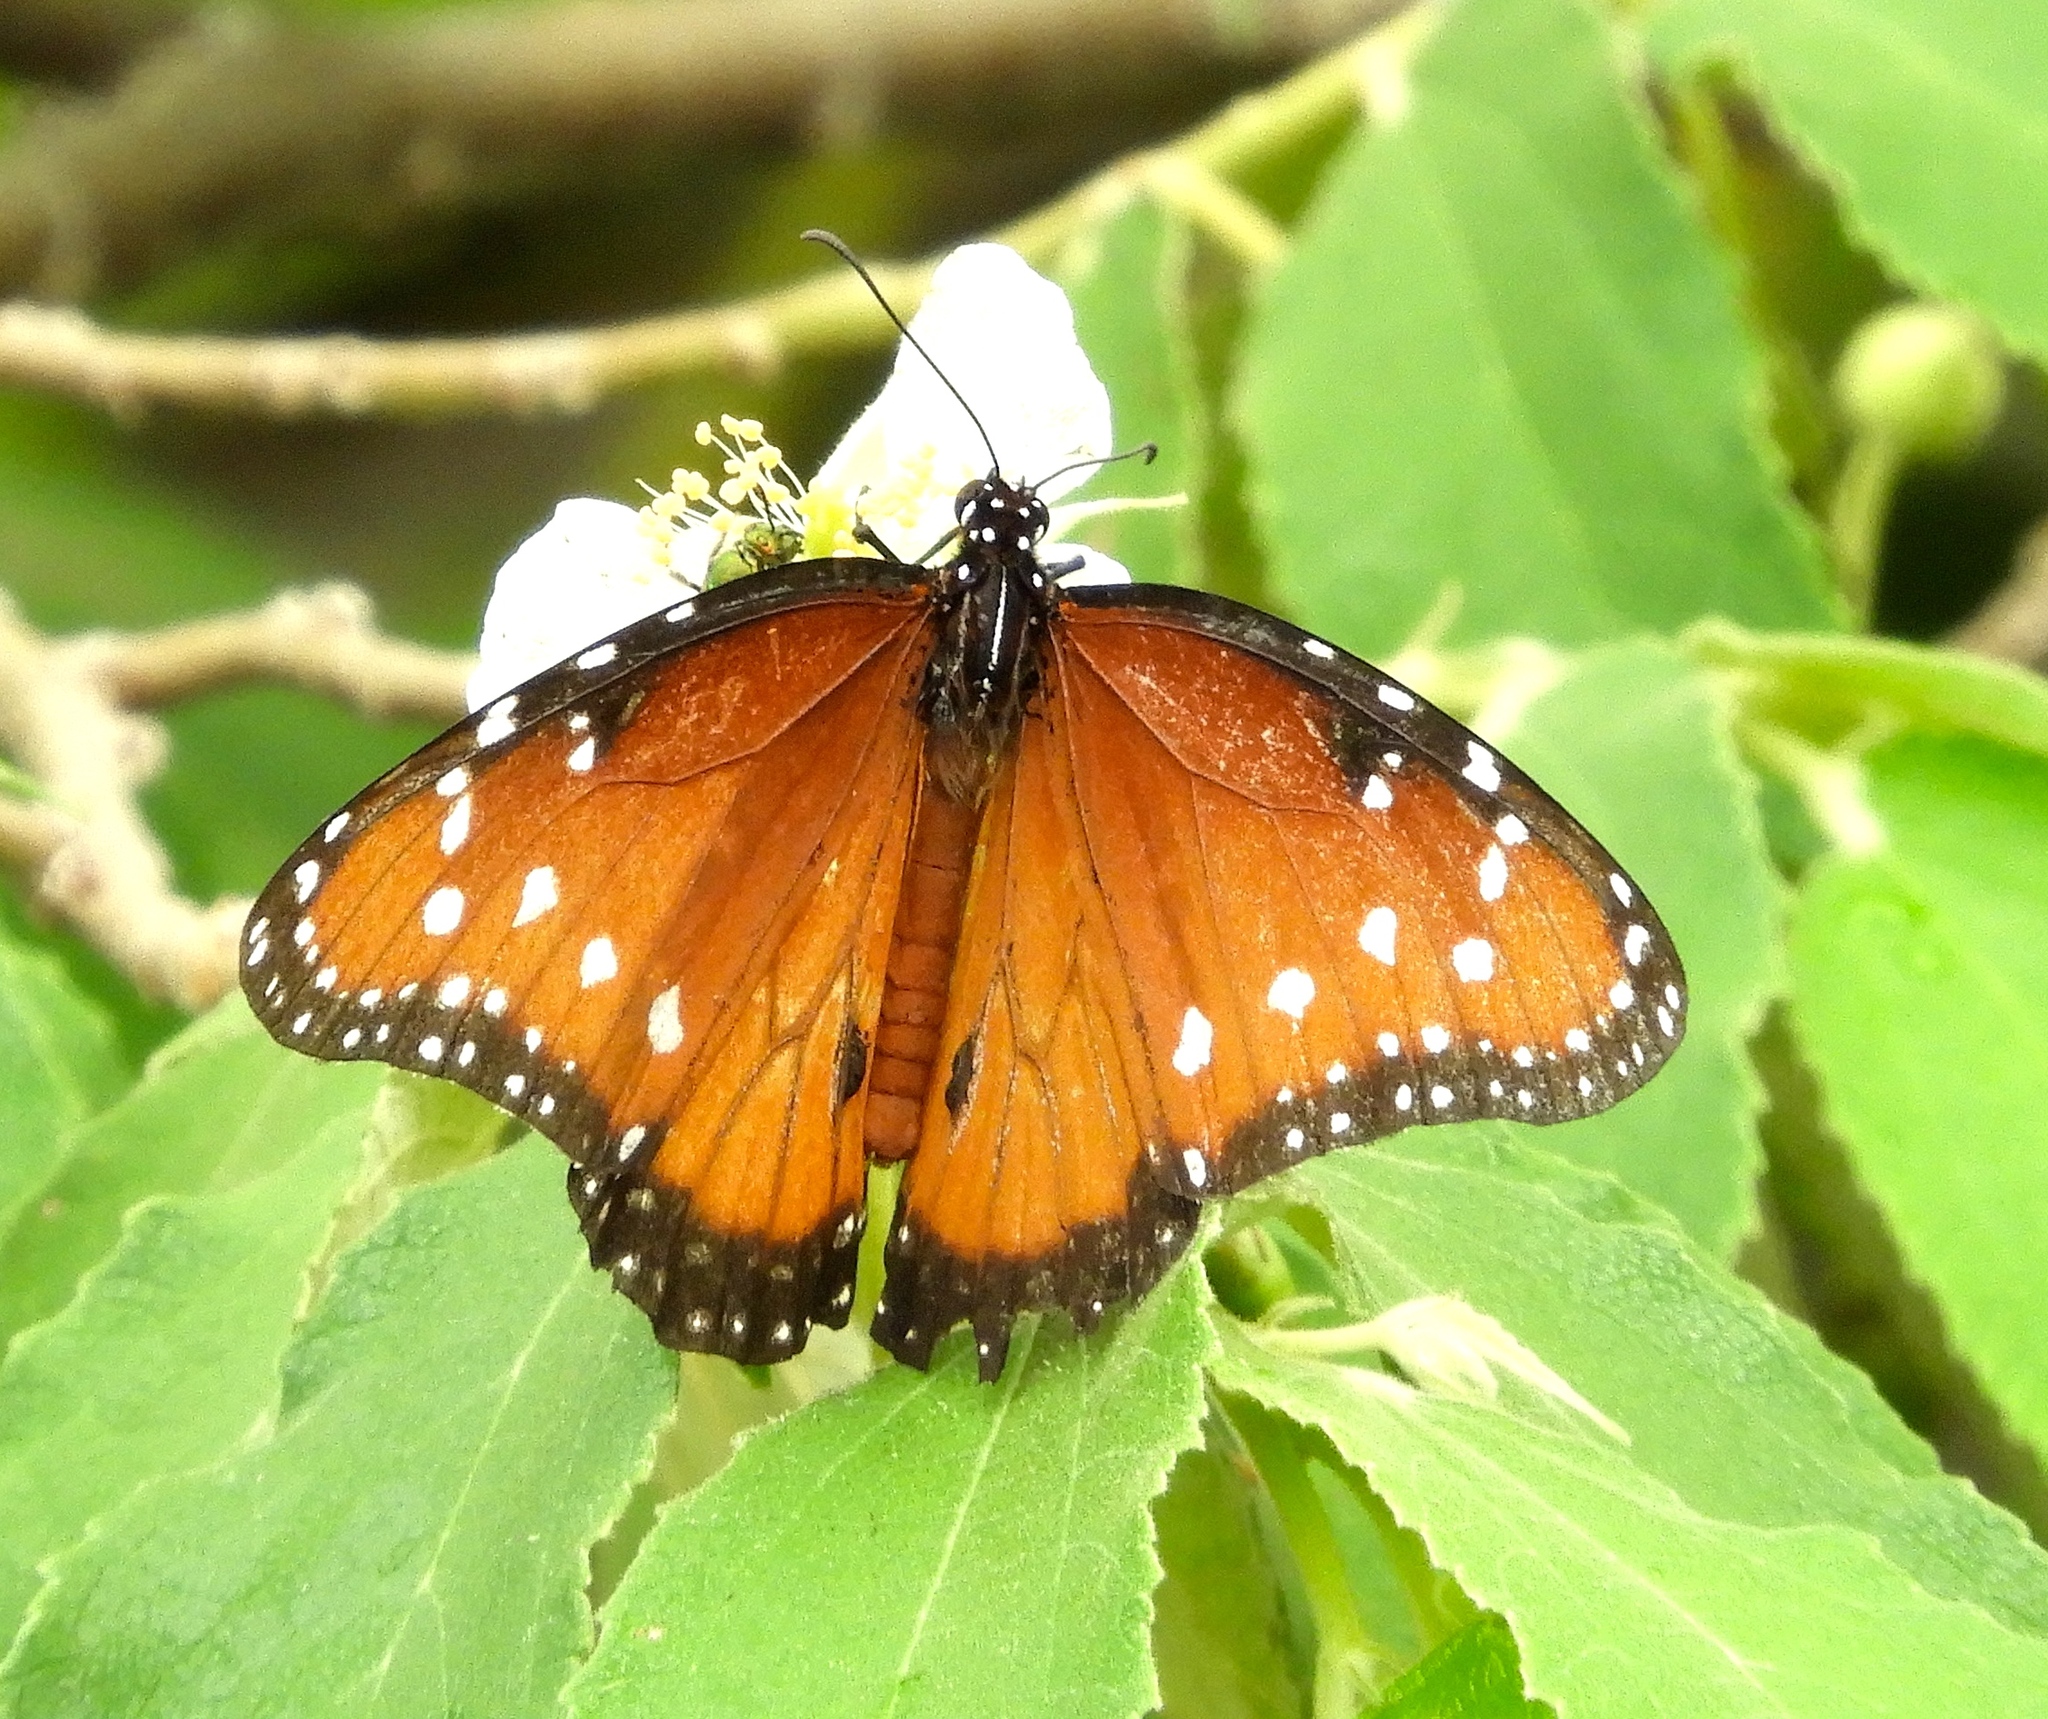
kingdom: Animalia
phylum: Arthropoda
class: Insecta
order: Lepidoptera
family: Nymphalidae
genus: Danaus
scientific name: Danaus gilippus
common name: Queen
